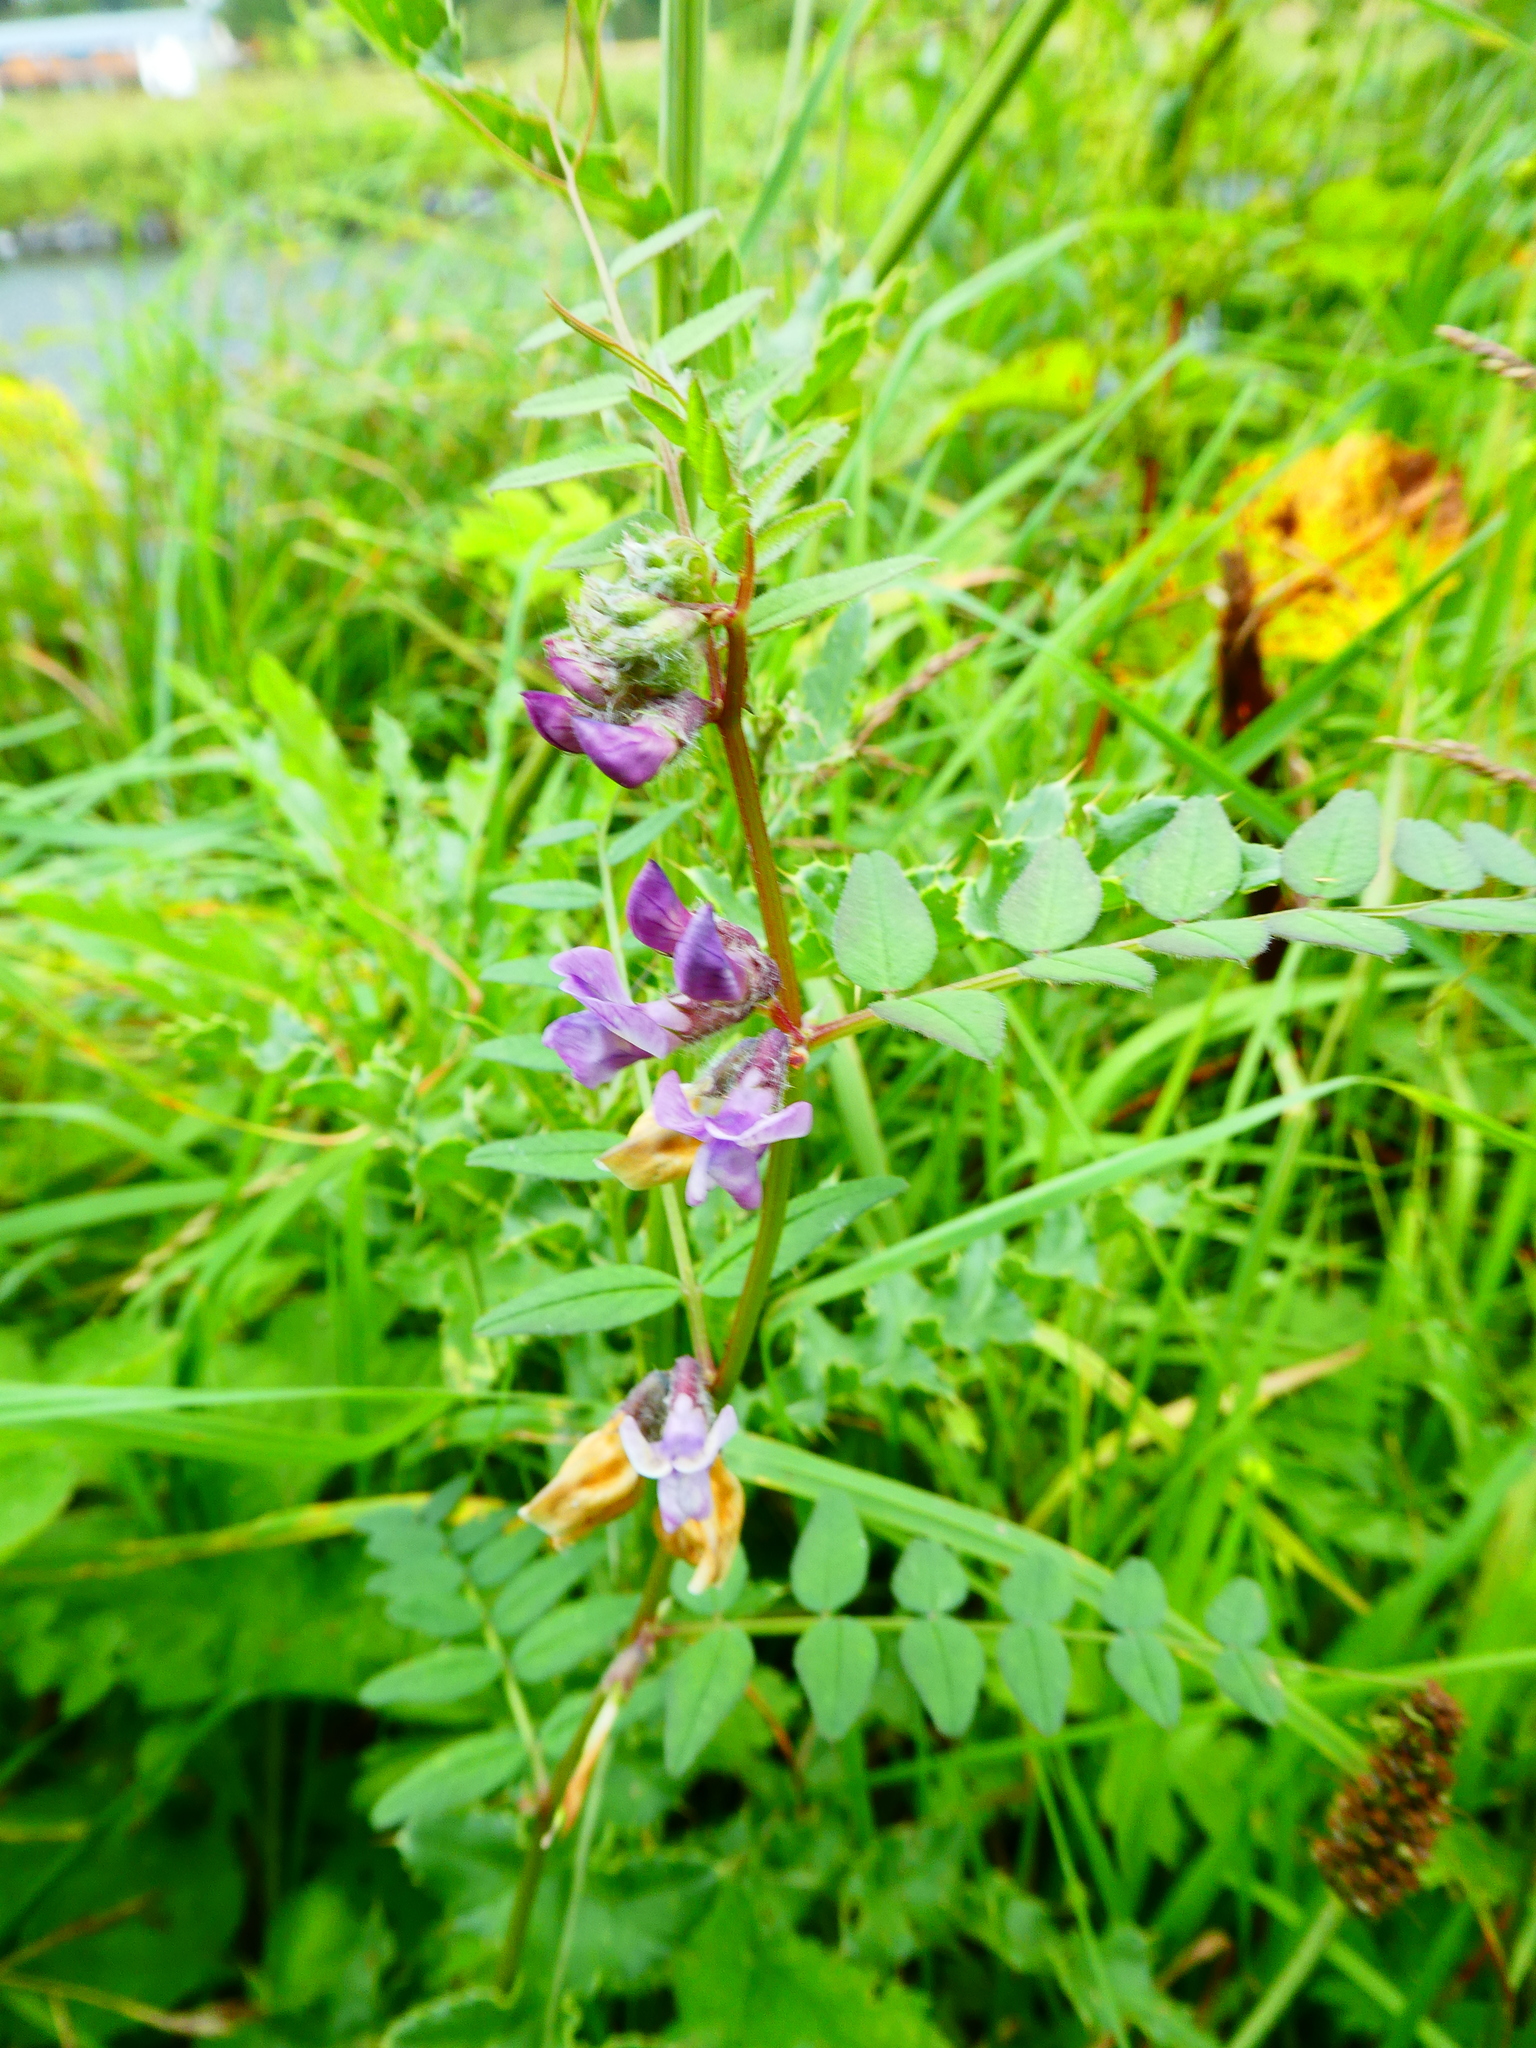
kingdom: Plantae
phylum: Tracheophyta
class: Magnoliopsida
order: Fabales
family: Fabaceae
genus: Vicia
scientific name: Vicia sepium
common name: Bush vetch
